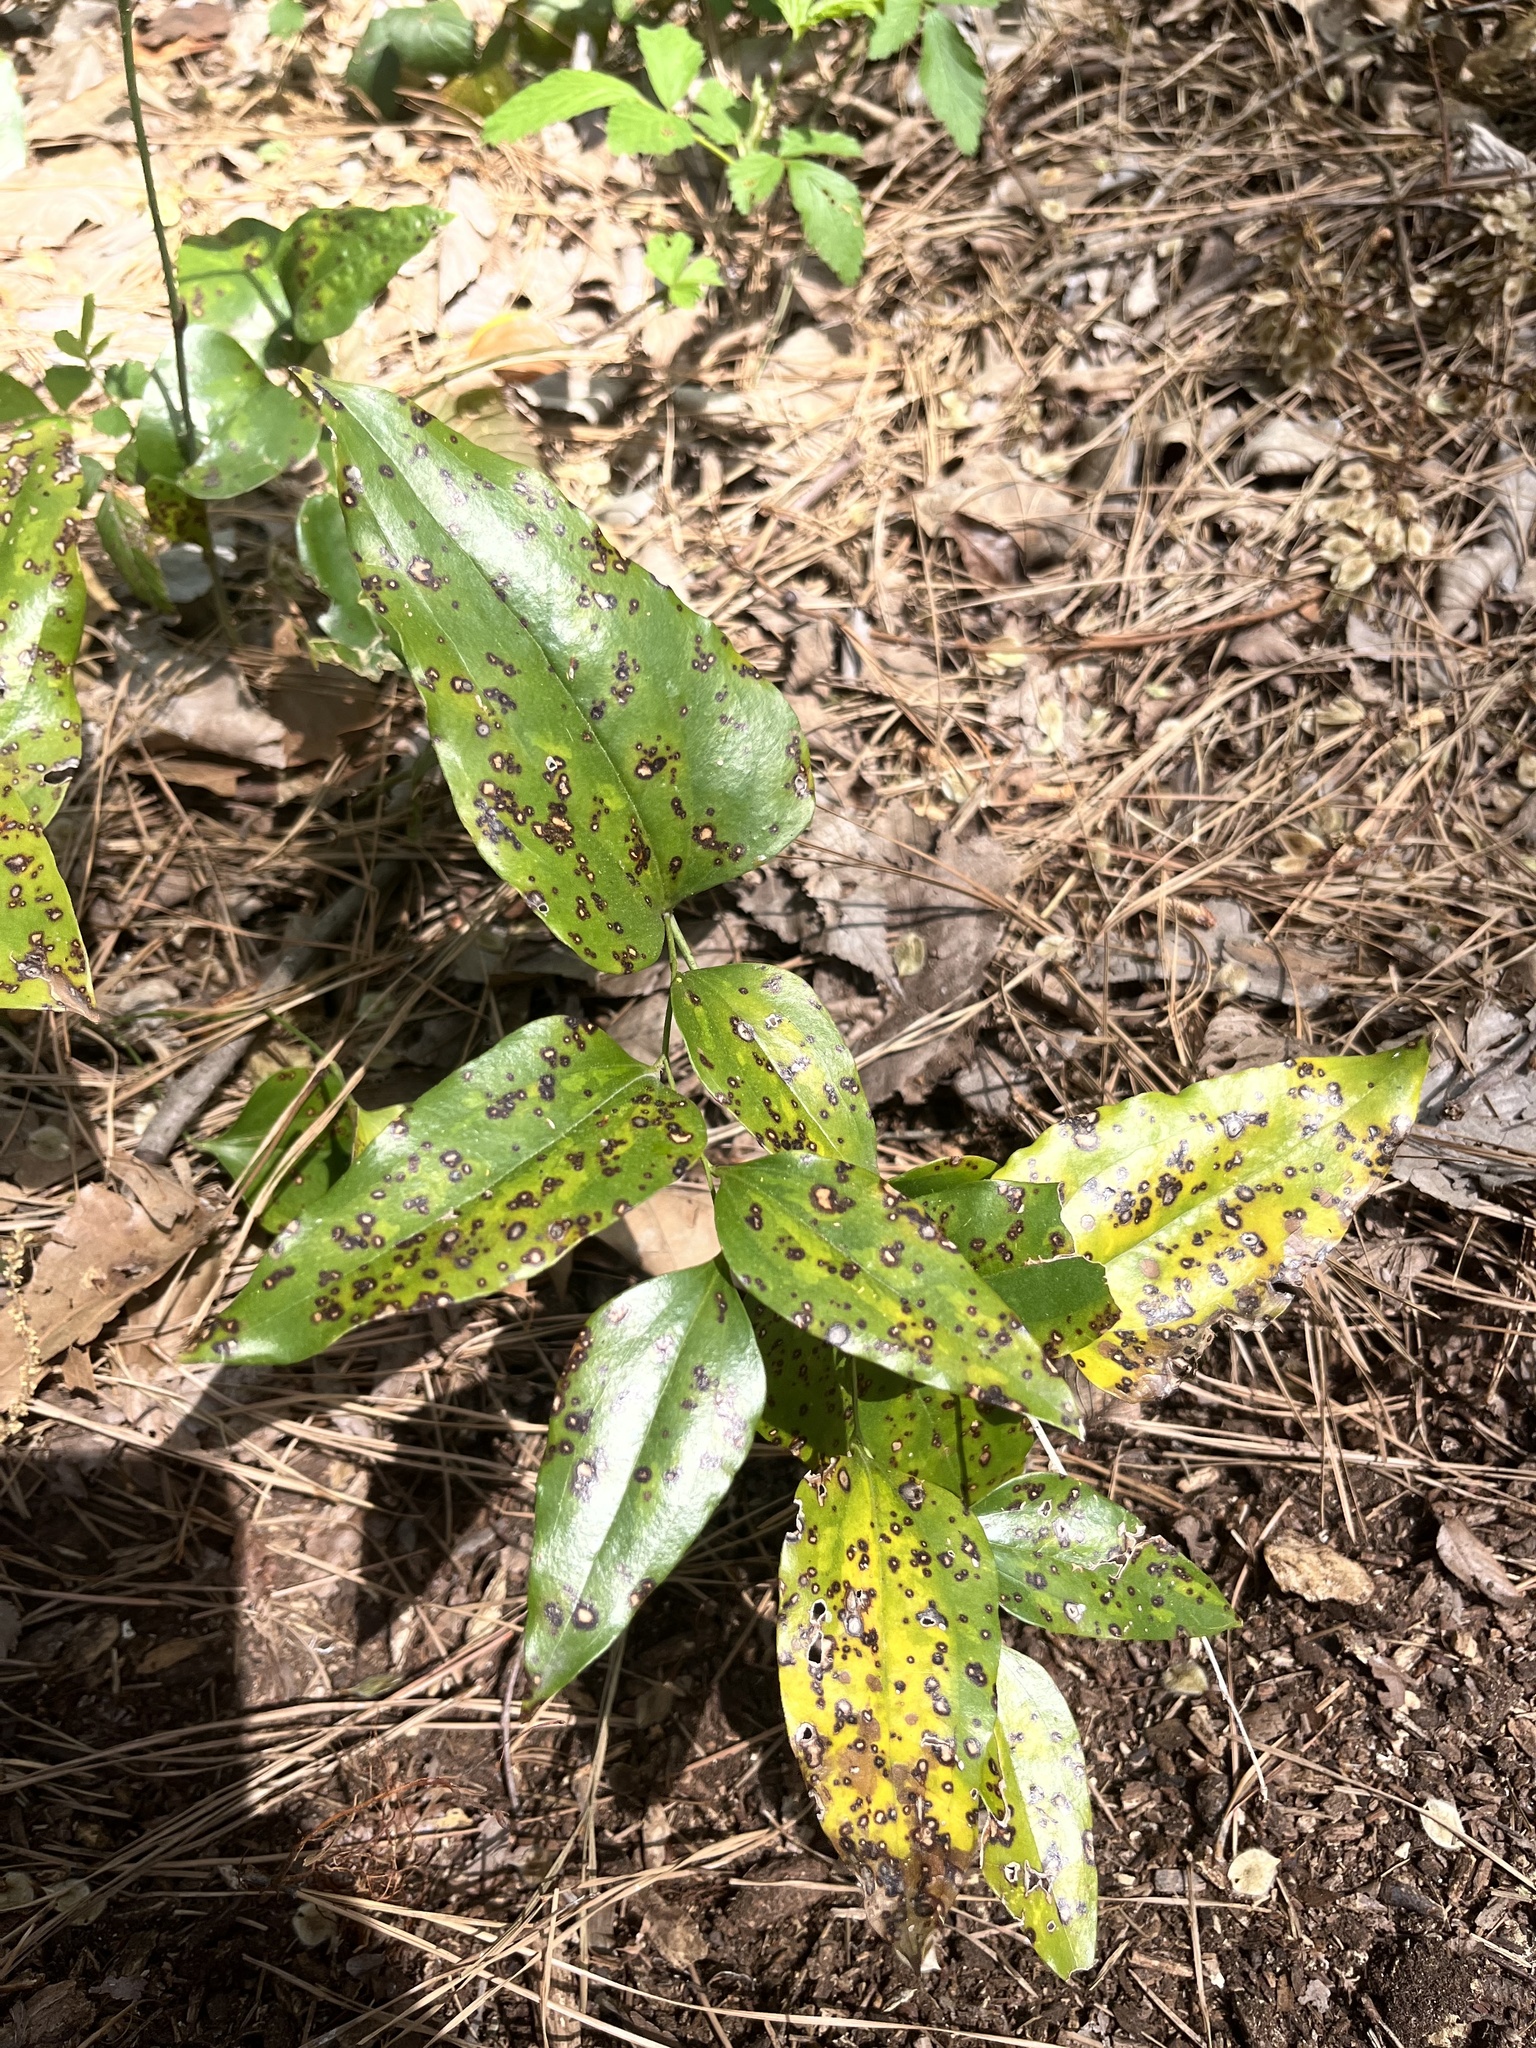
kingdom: Plantae
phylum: Tracheophyta
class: Liliopsida
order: Liliales
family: Smilacaceae
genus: Smilax
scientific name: Smilax maritima
